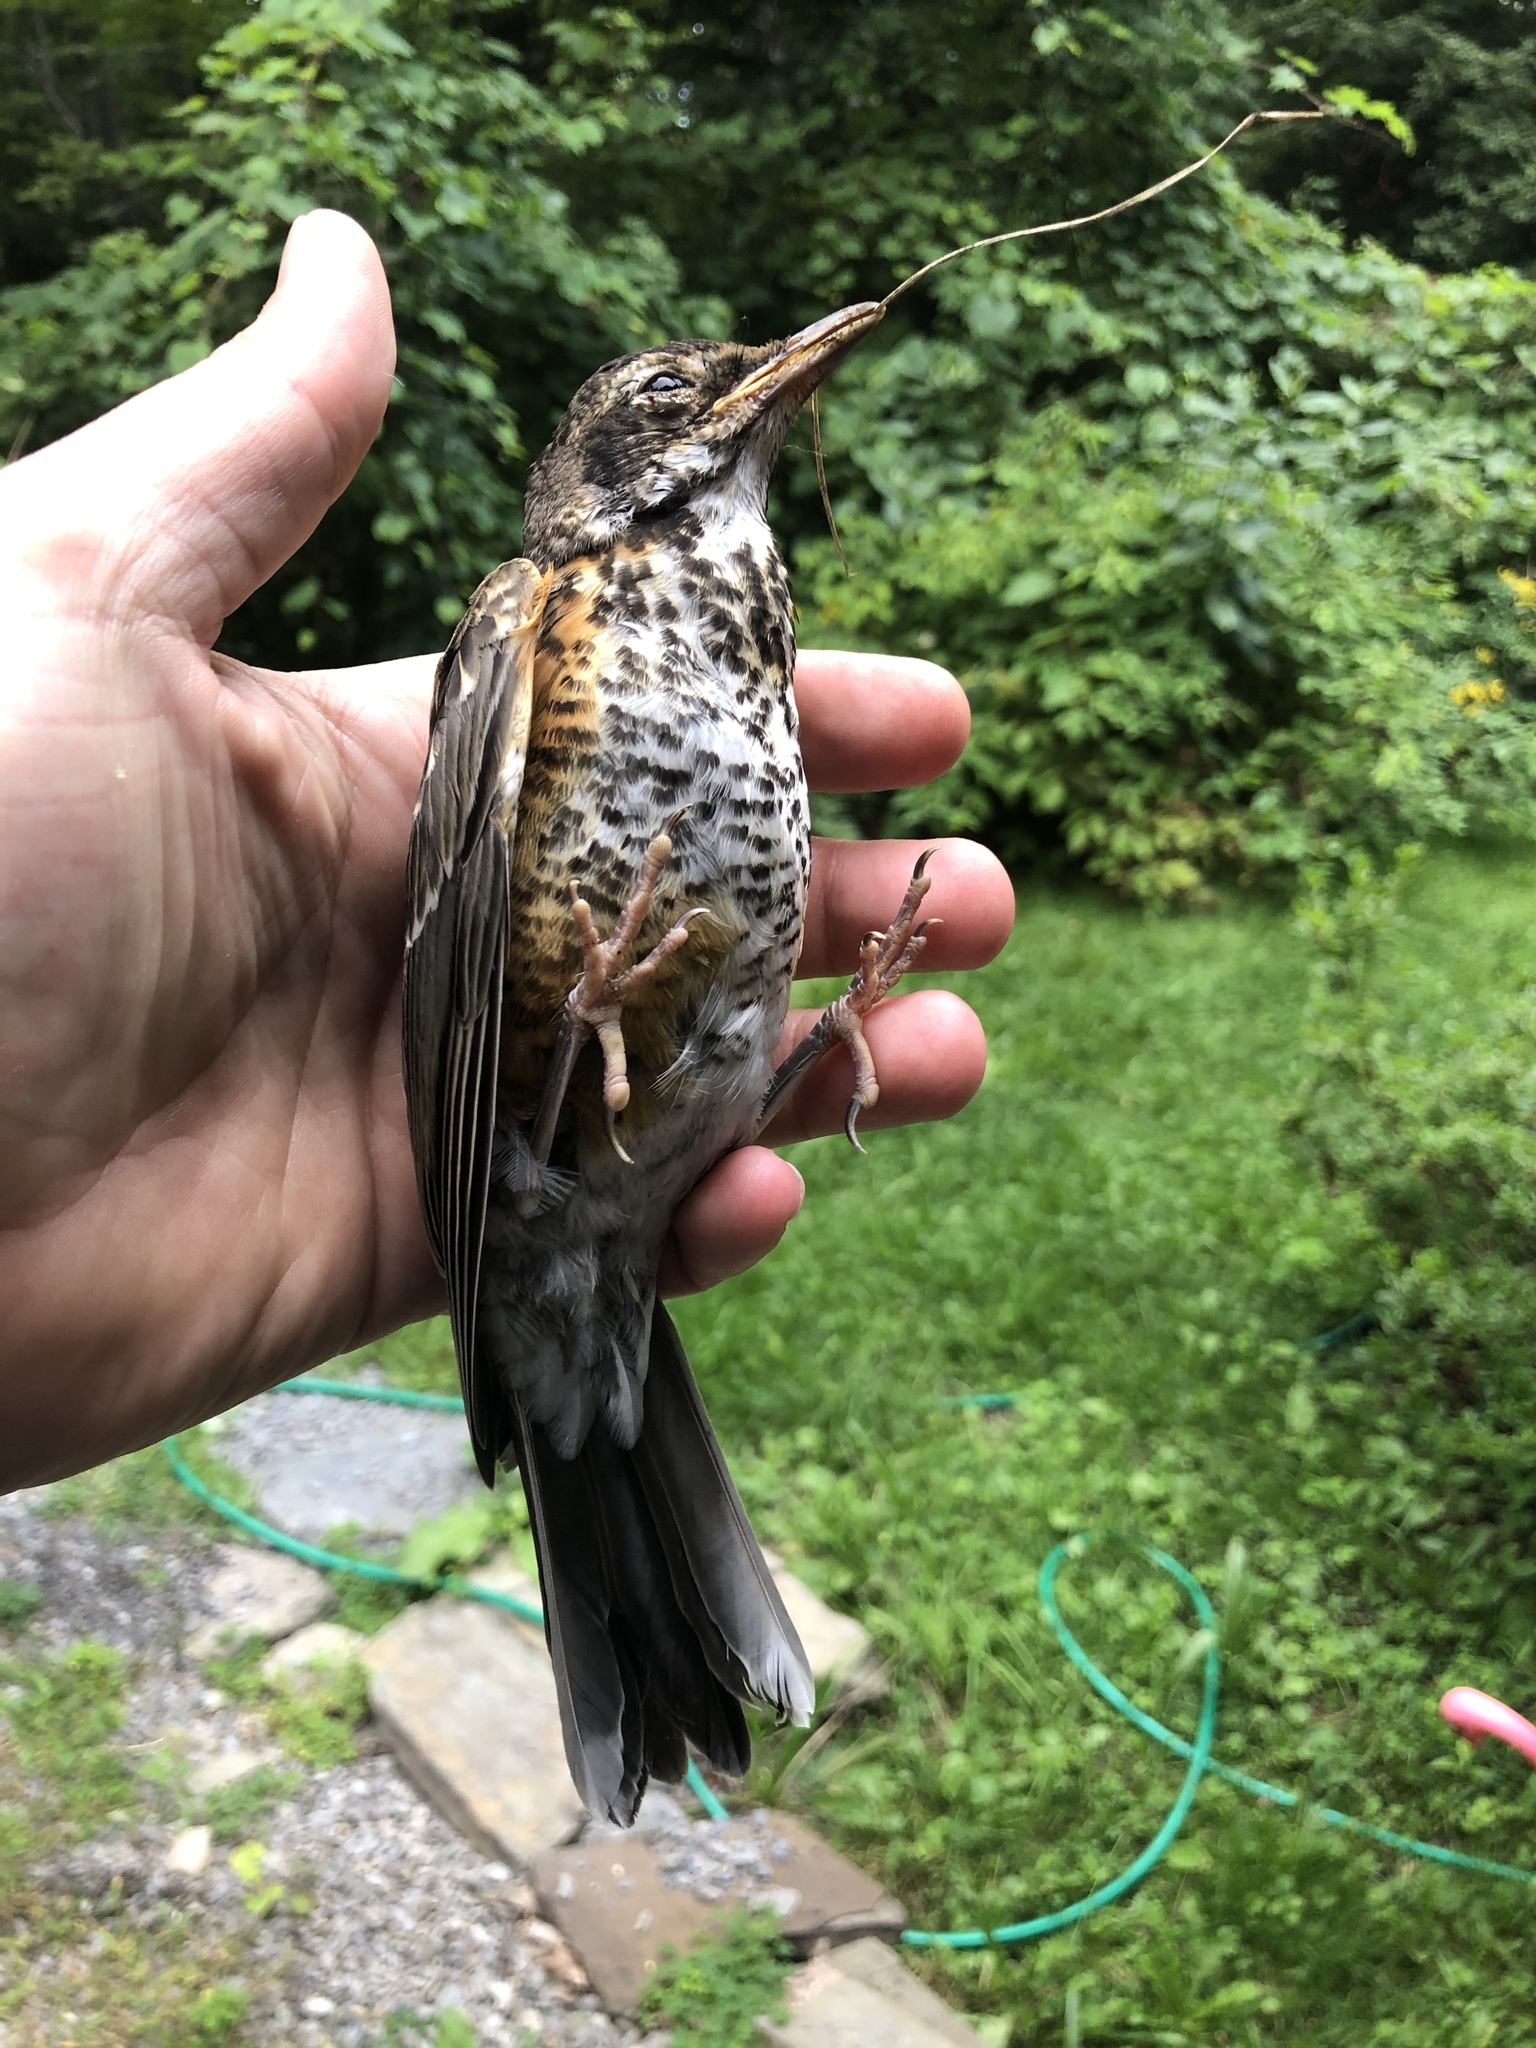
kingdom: Animalia
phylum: Chordata
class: Aves
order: Passeriformes
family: Turdidae
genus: Turdus
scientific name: Turdus migratorius
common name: American robin
